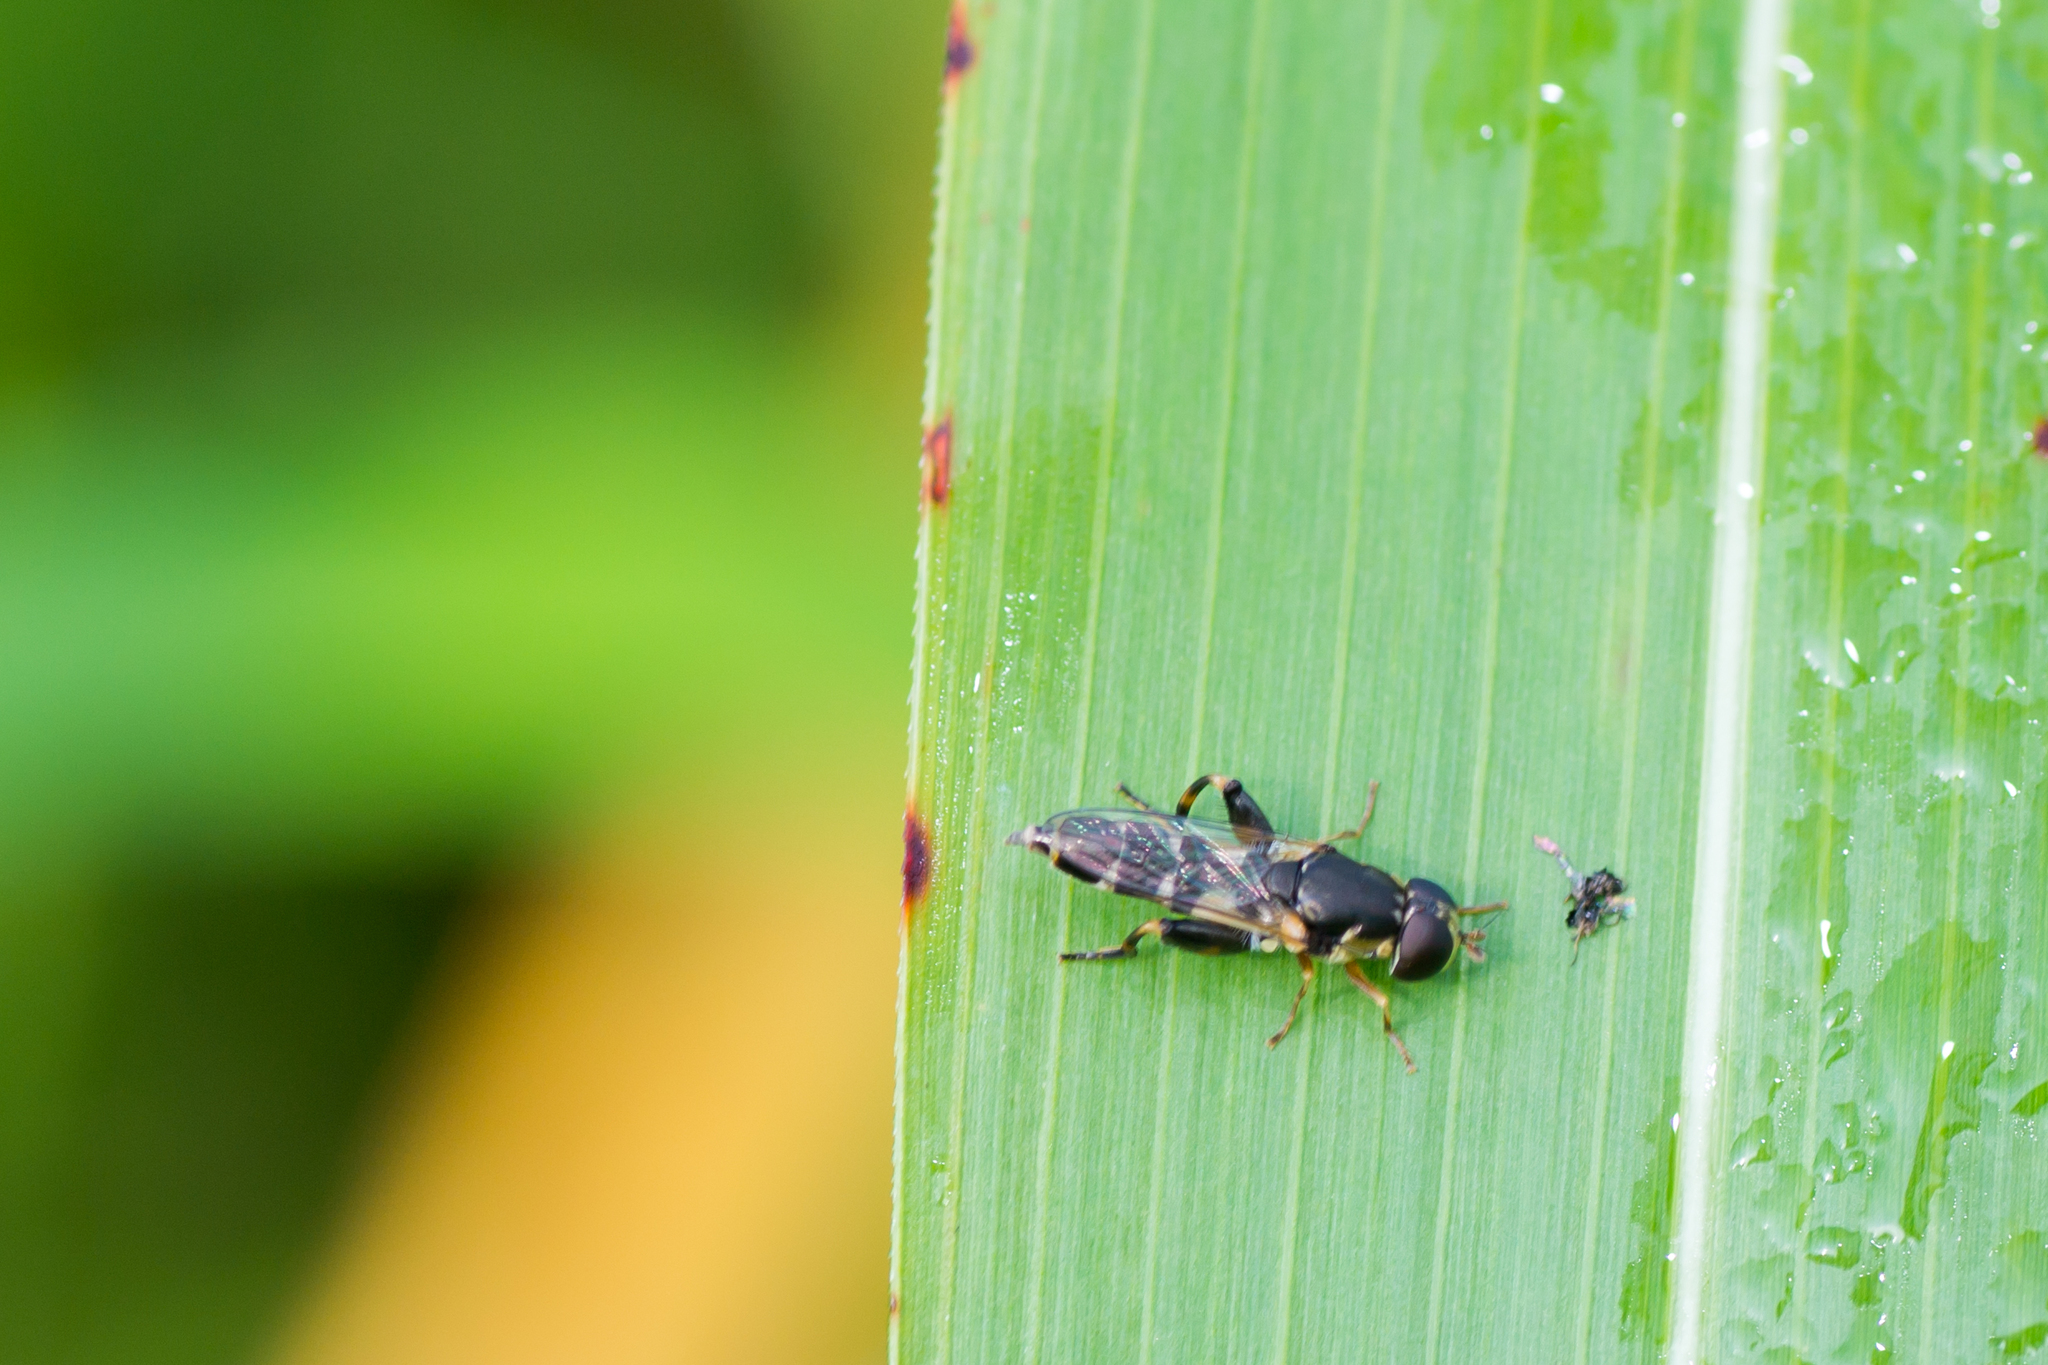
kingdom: Animalia
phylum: Arthropoda
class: Insecta
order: Diptera
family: Syrphidae
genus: Syritta
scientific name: Syritta pipiens
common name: Hover fly
